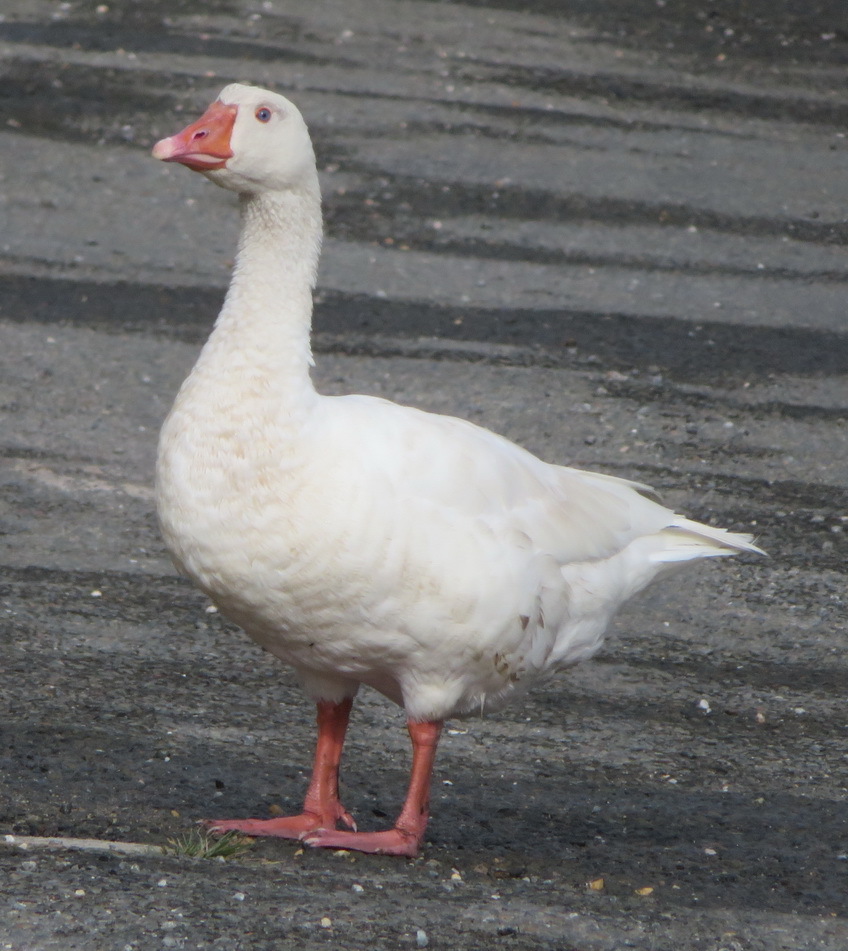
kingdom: Animalia
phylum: Chordata
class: Aves
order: Anseriformes
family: Anatidae
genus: Anser
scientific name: Anser anser
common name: Greylag goose
